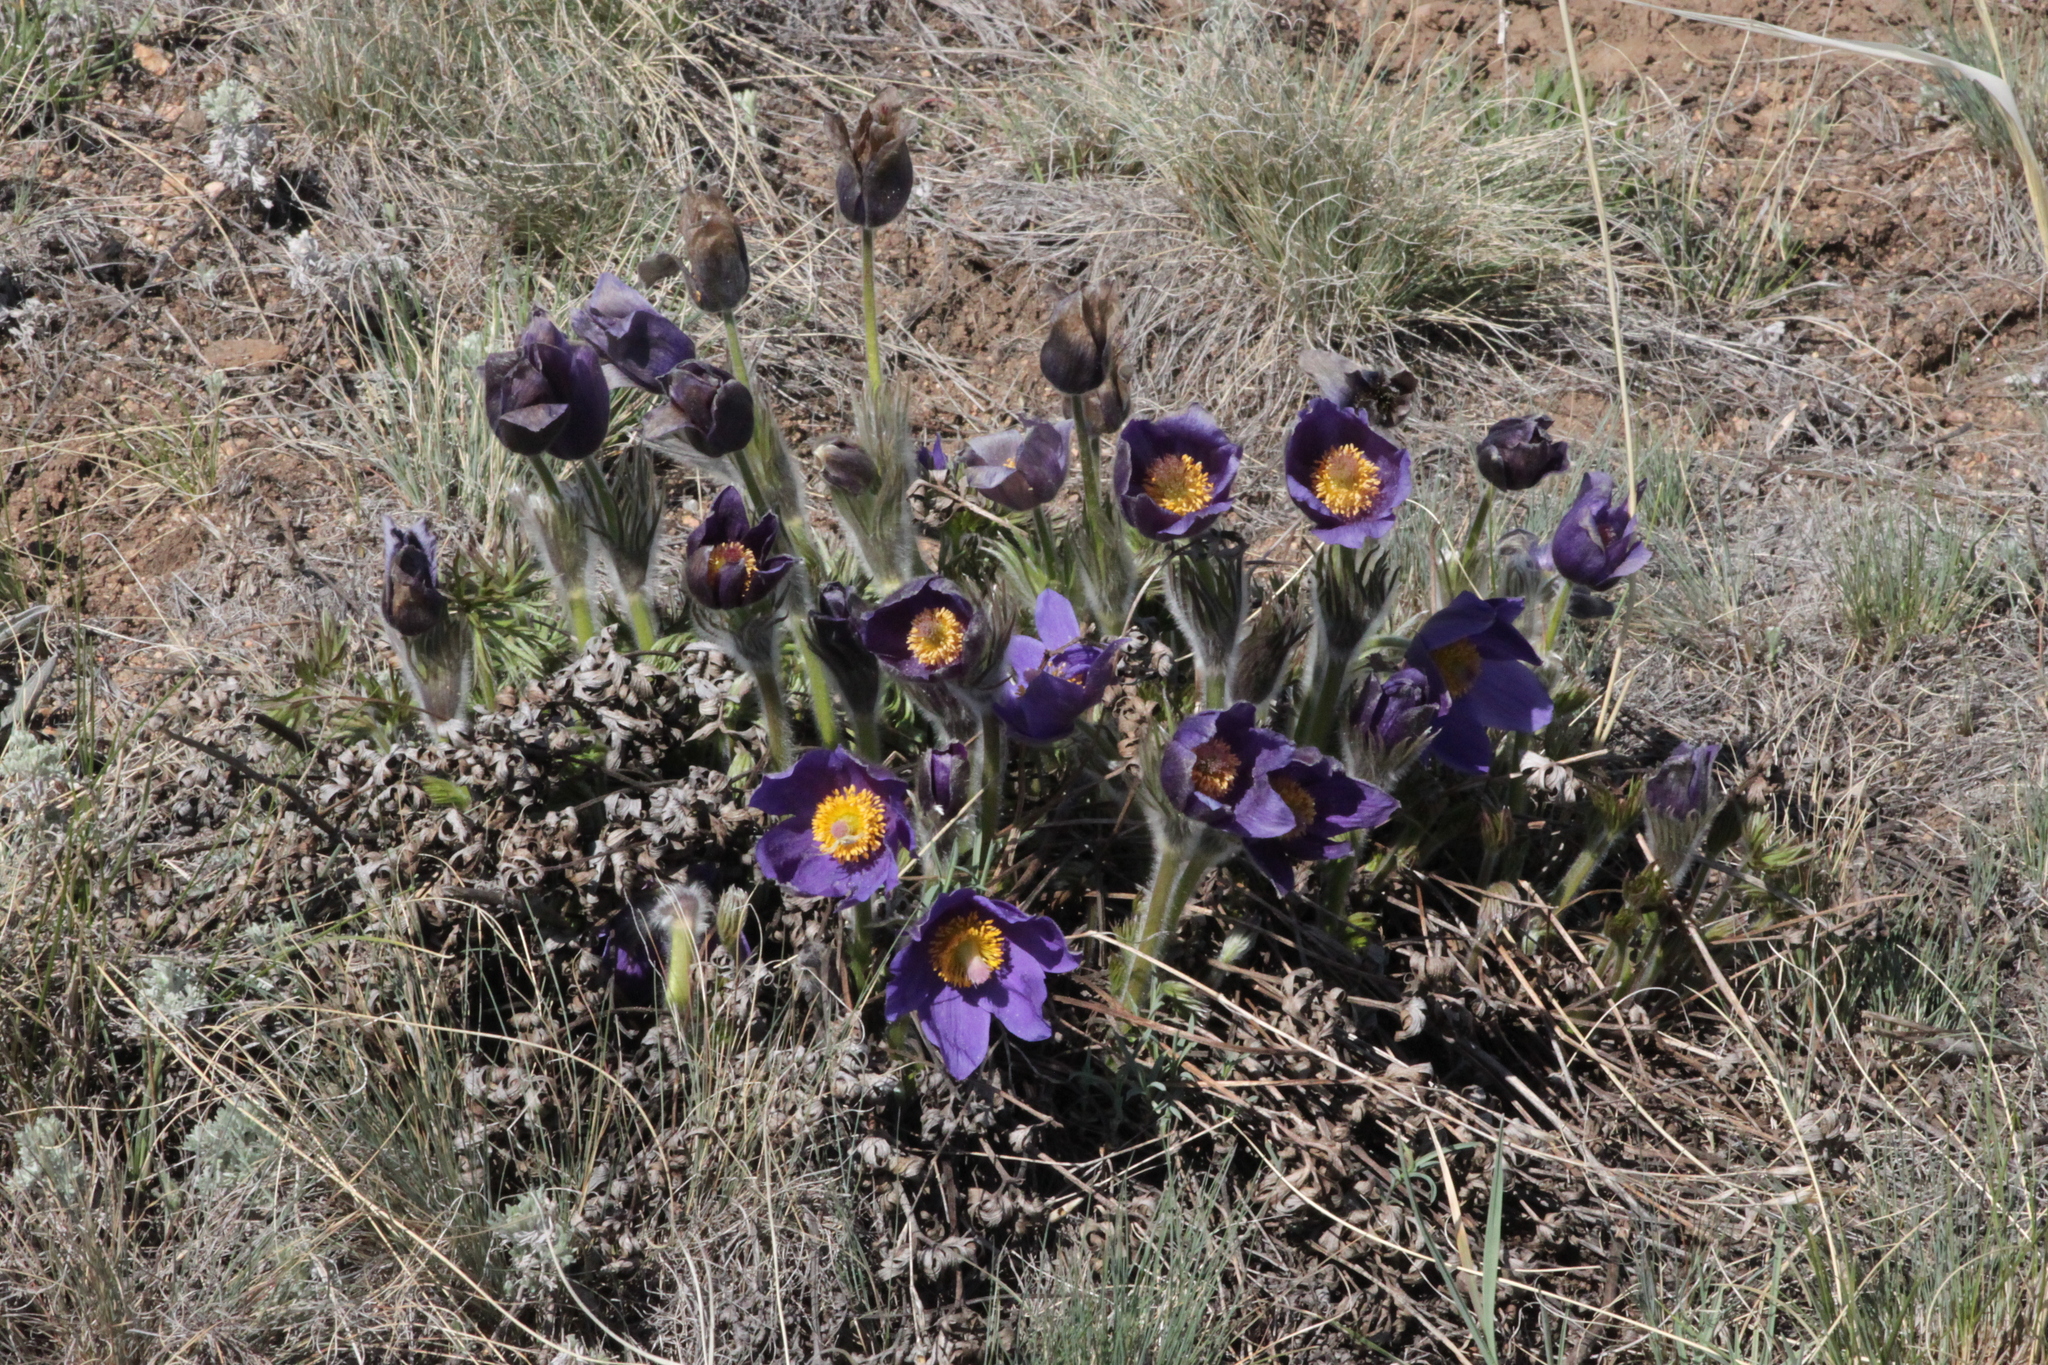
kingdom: Plantae
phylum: Tracheophyta
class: Magnoliopsida
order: Ranunculales
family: Ranunculaceae
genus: Pulsatilla
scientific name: Pulsatilla patens
